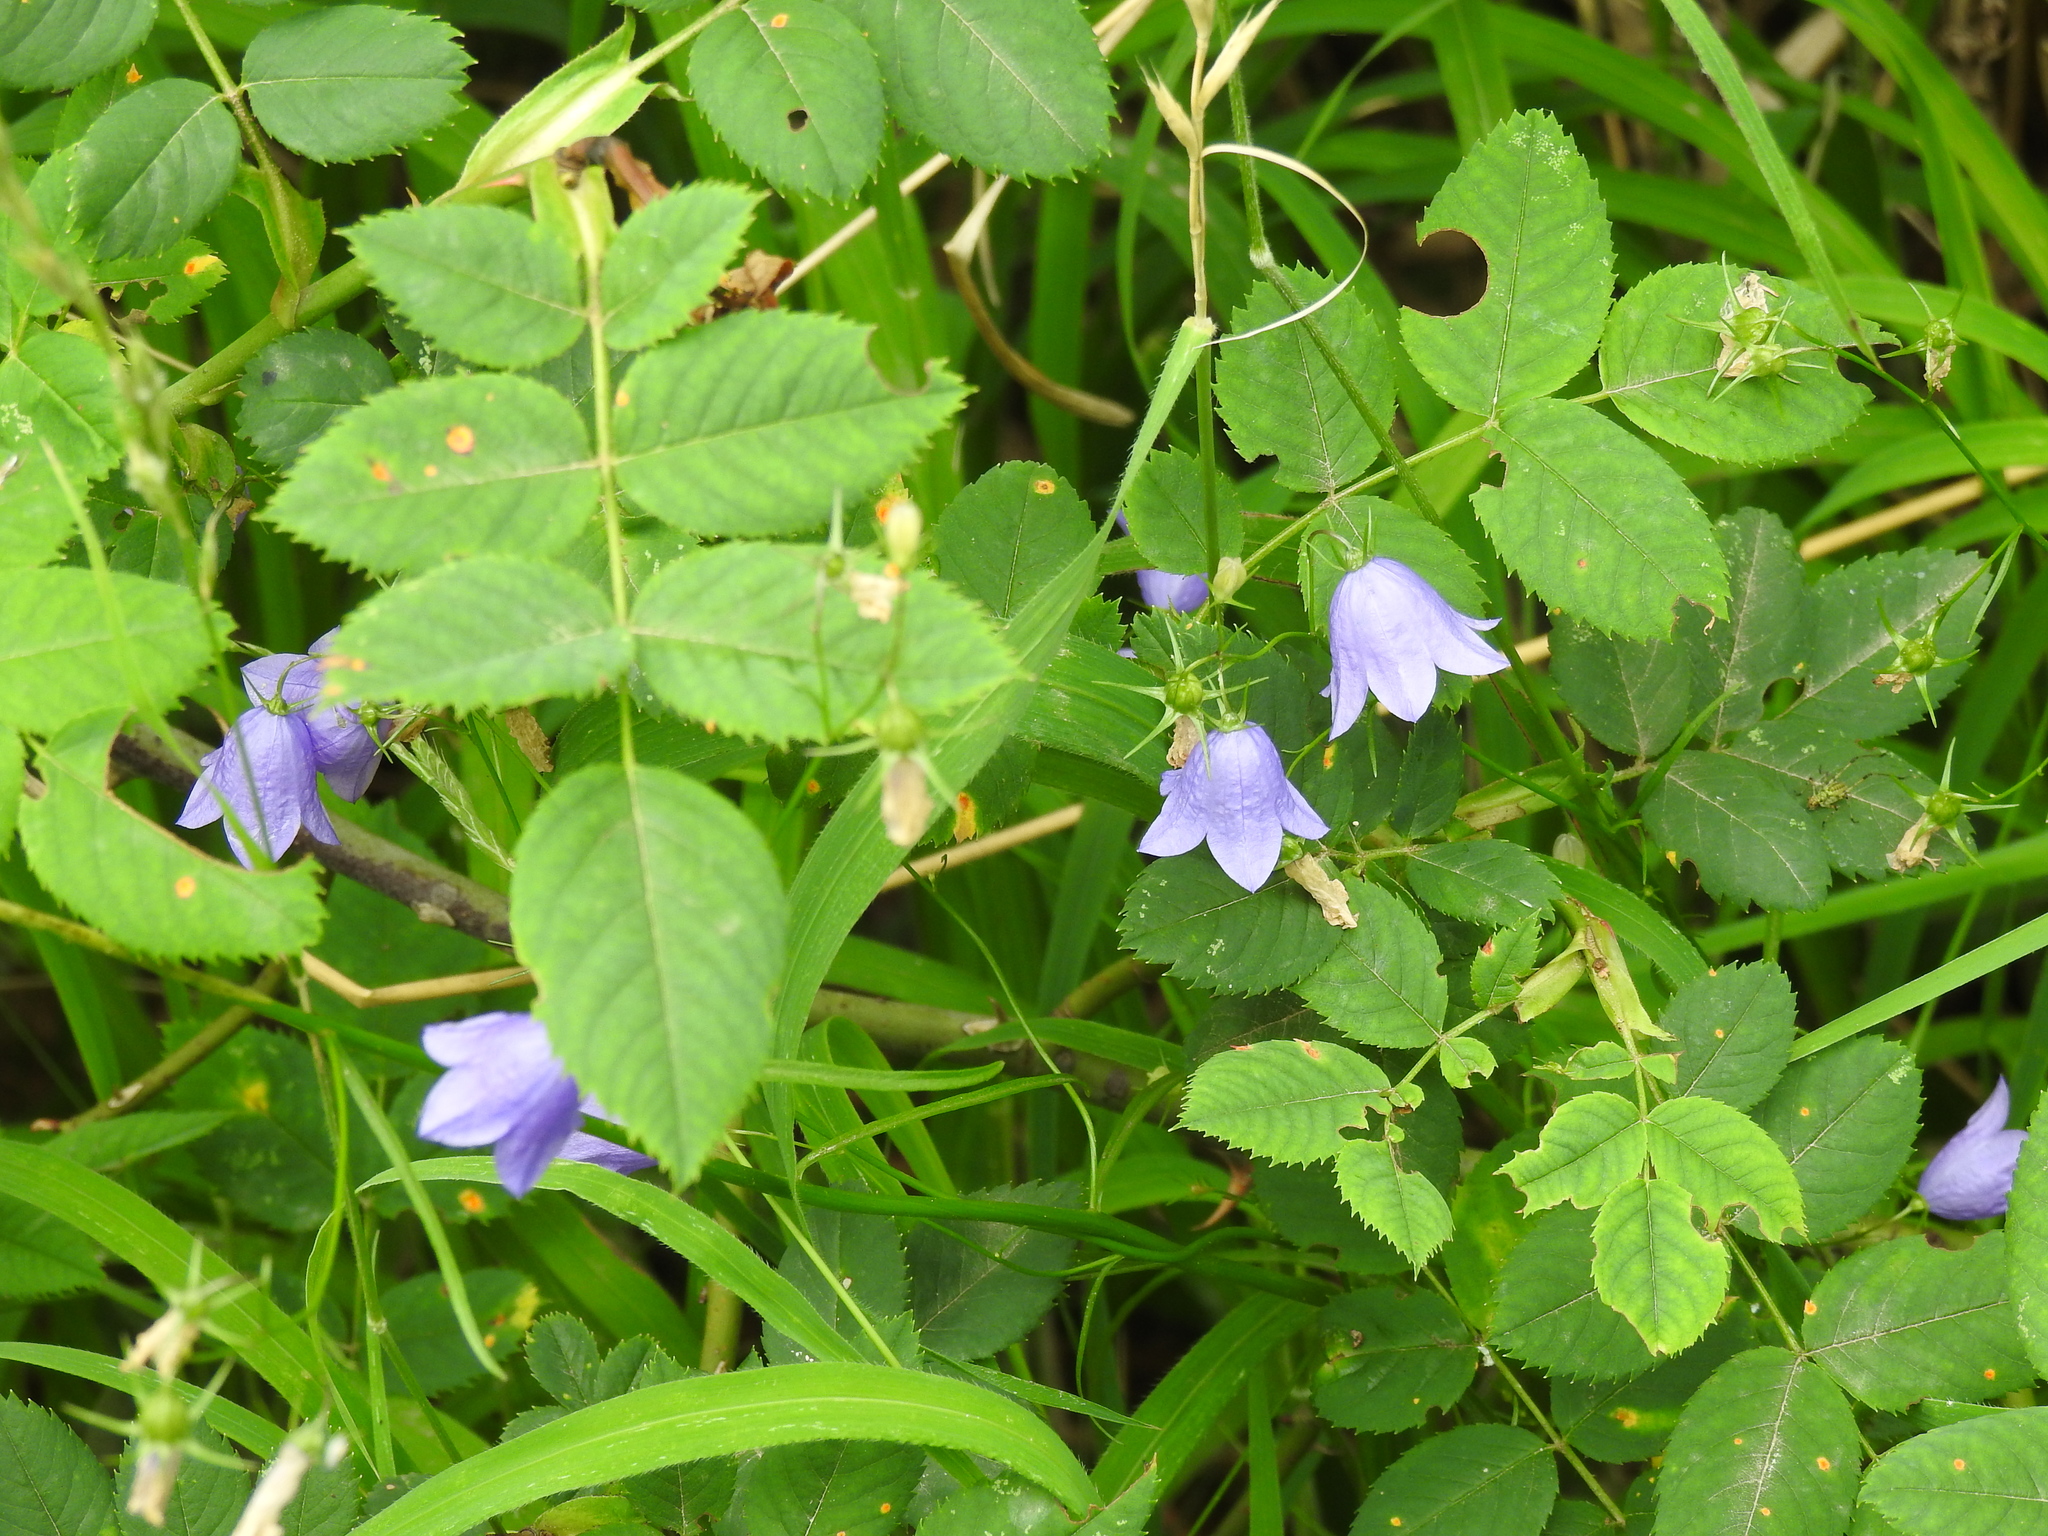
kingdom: Plantae
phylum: Tracheophyta
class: Magnoliopsida
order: Asterales
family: Campanulaceae
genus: Campanula
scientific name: Campanula rotundifolia
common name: Harebell
